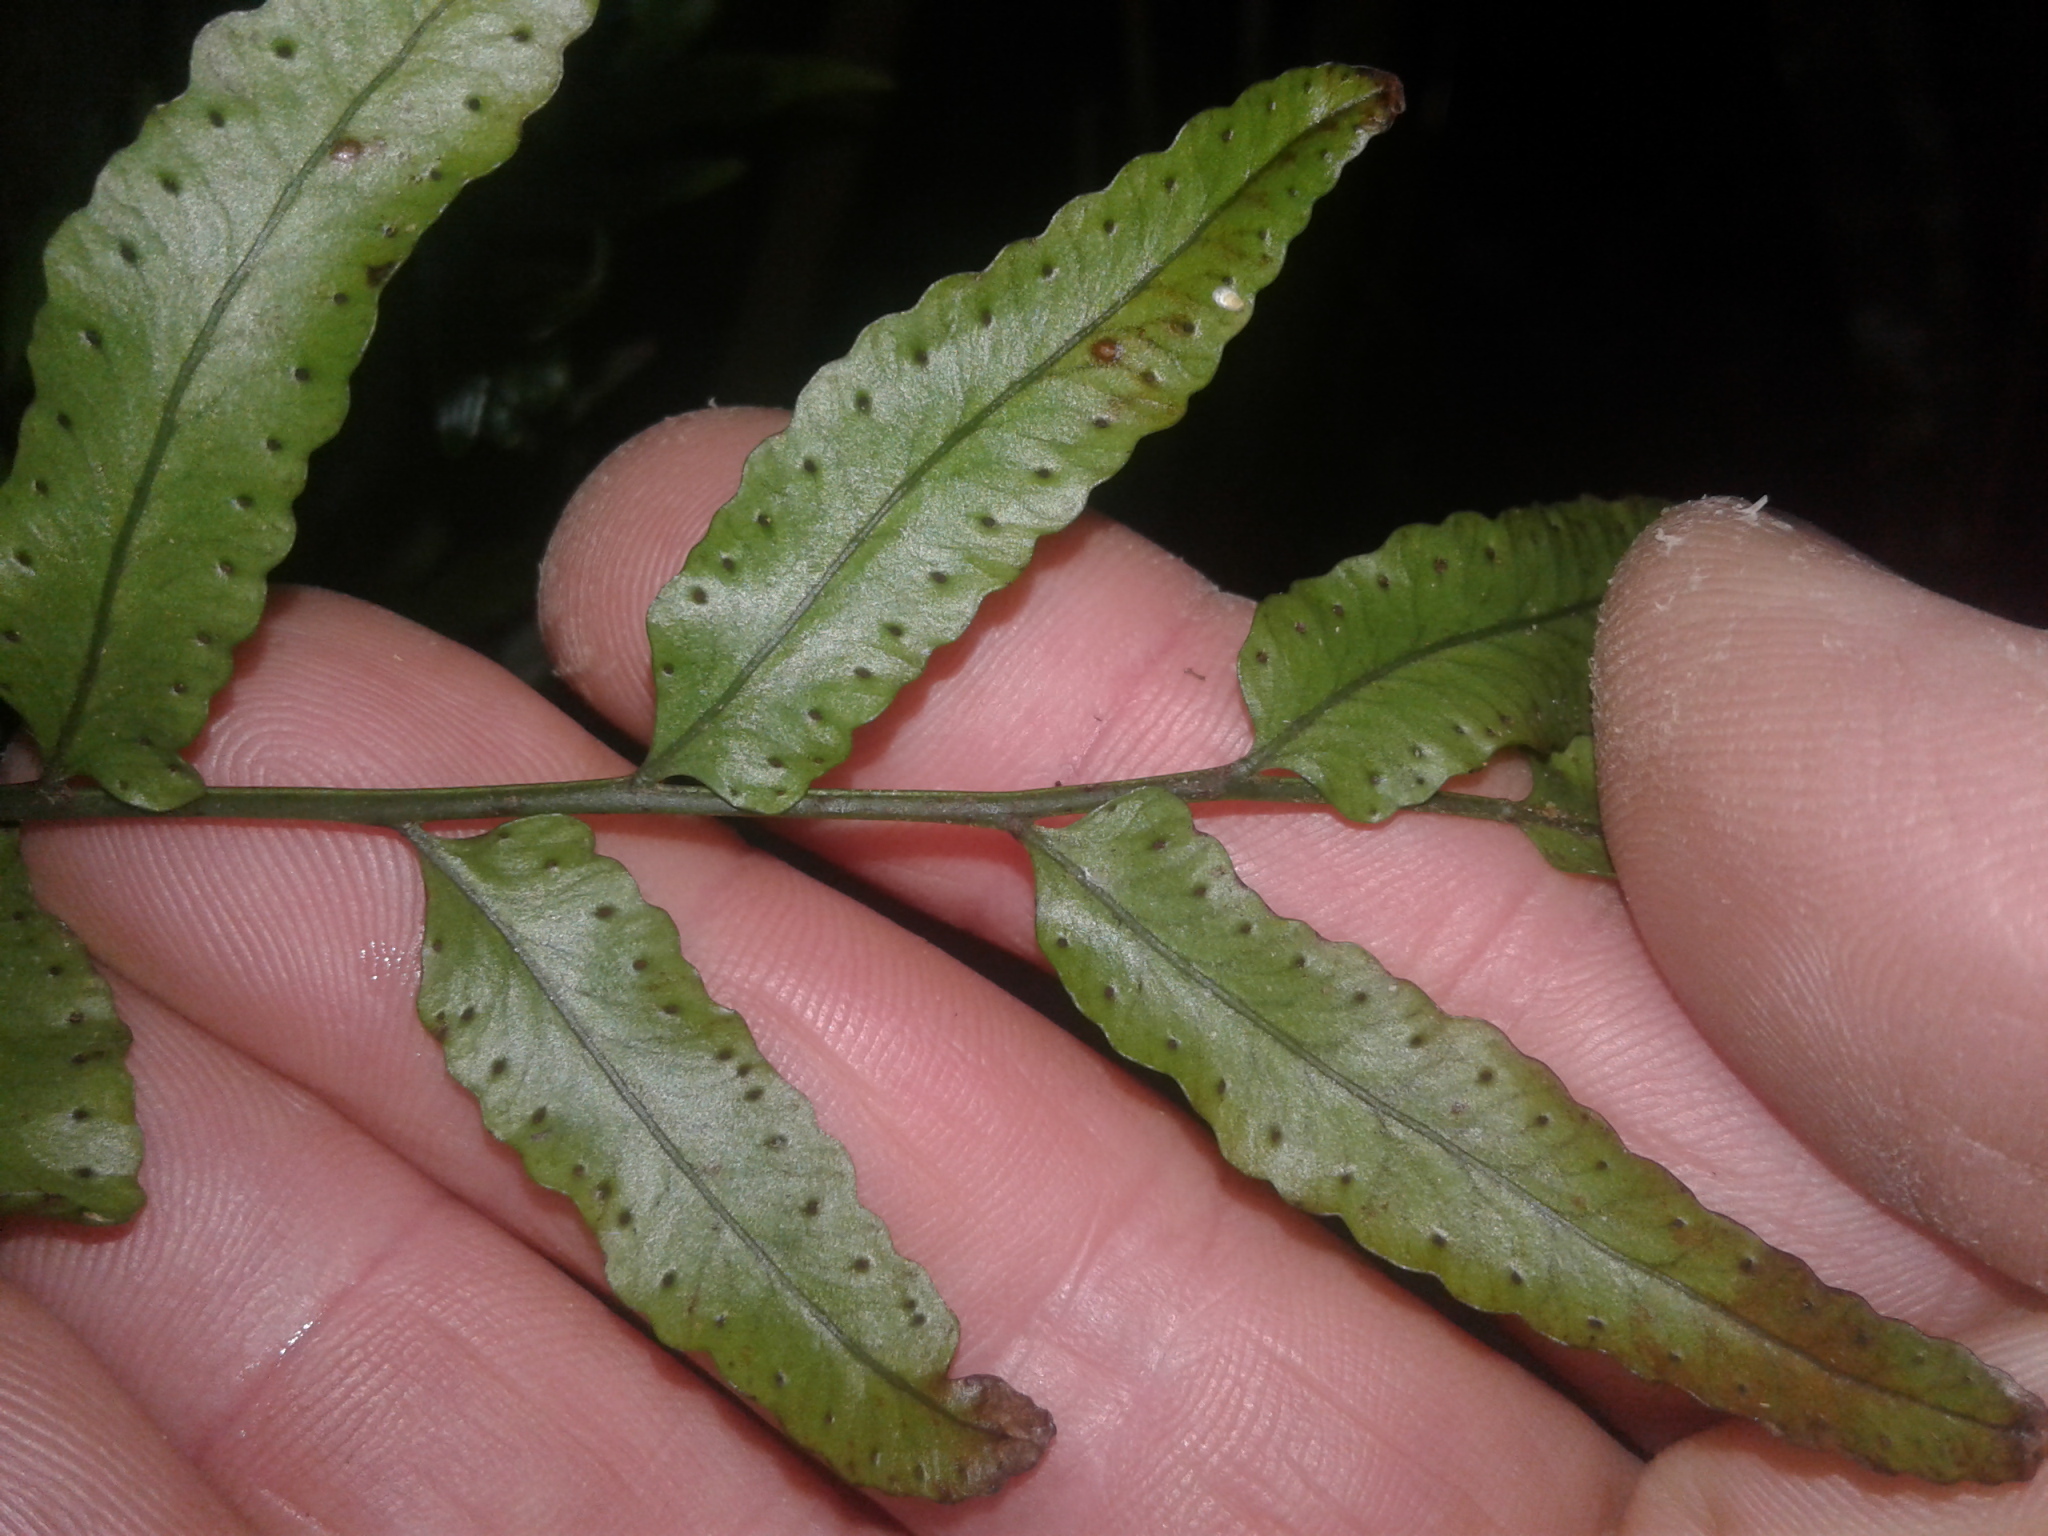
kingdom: Plantae
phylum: Tracheophyta
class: Polypodiopsida
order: Polypodiales
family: Tectariaceae
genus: Arthropteris
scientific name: Arthropteris tenella
